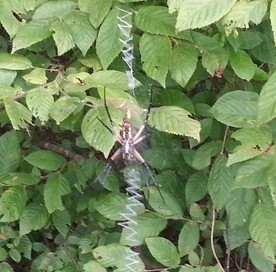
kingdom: Animalia
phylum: Arthropoda
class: Arachnida
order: Araneae
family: Araneidae
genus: Argiope
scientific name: Argiope aurantia
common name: Orb weavers
